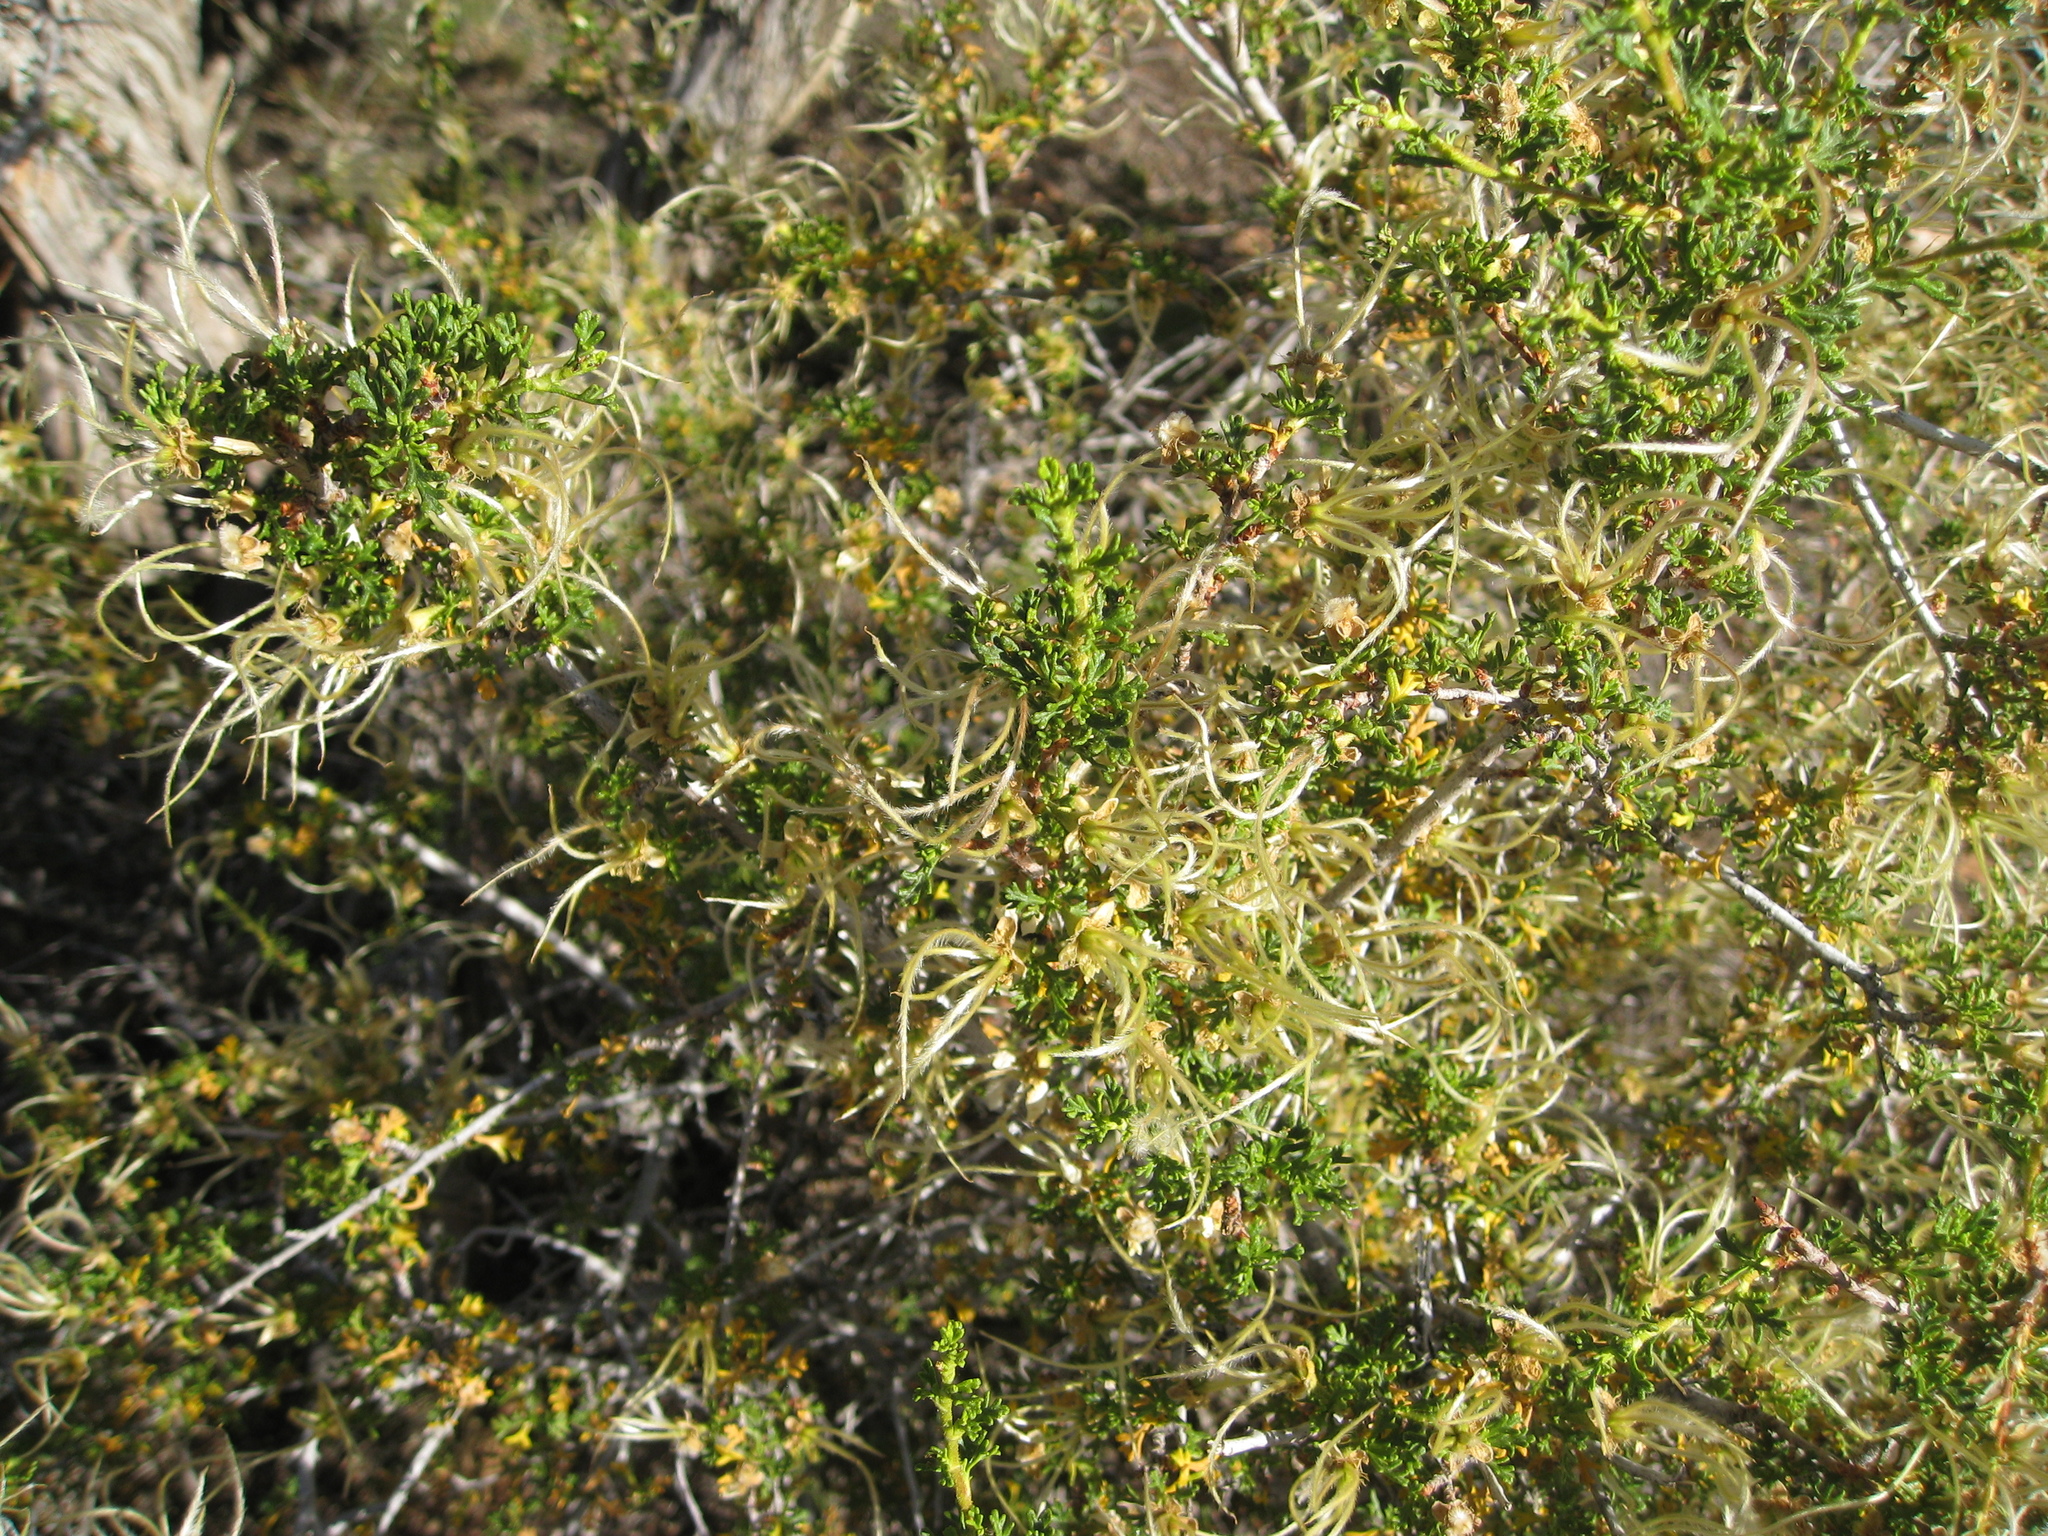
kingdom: Plantae
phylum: Tracheophyta
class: Magnoliopsida
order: Rosales
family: Rosaceae
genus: Purshia
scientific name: Purshia stansburiana
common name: Stansbury's cliffrose
